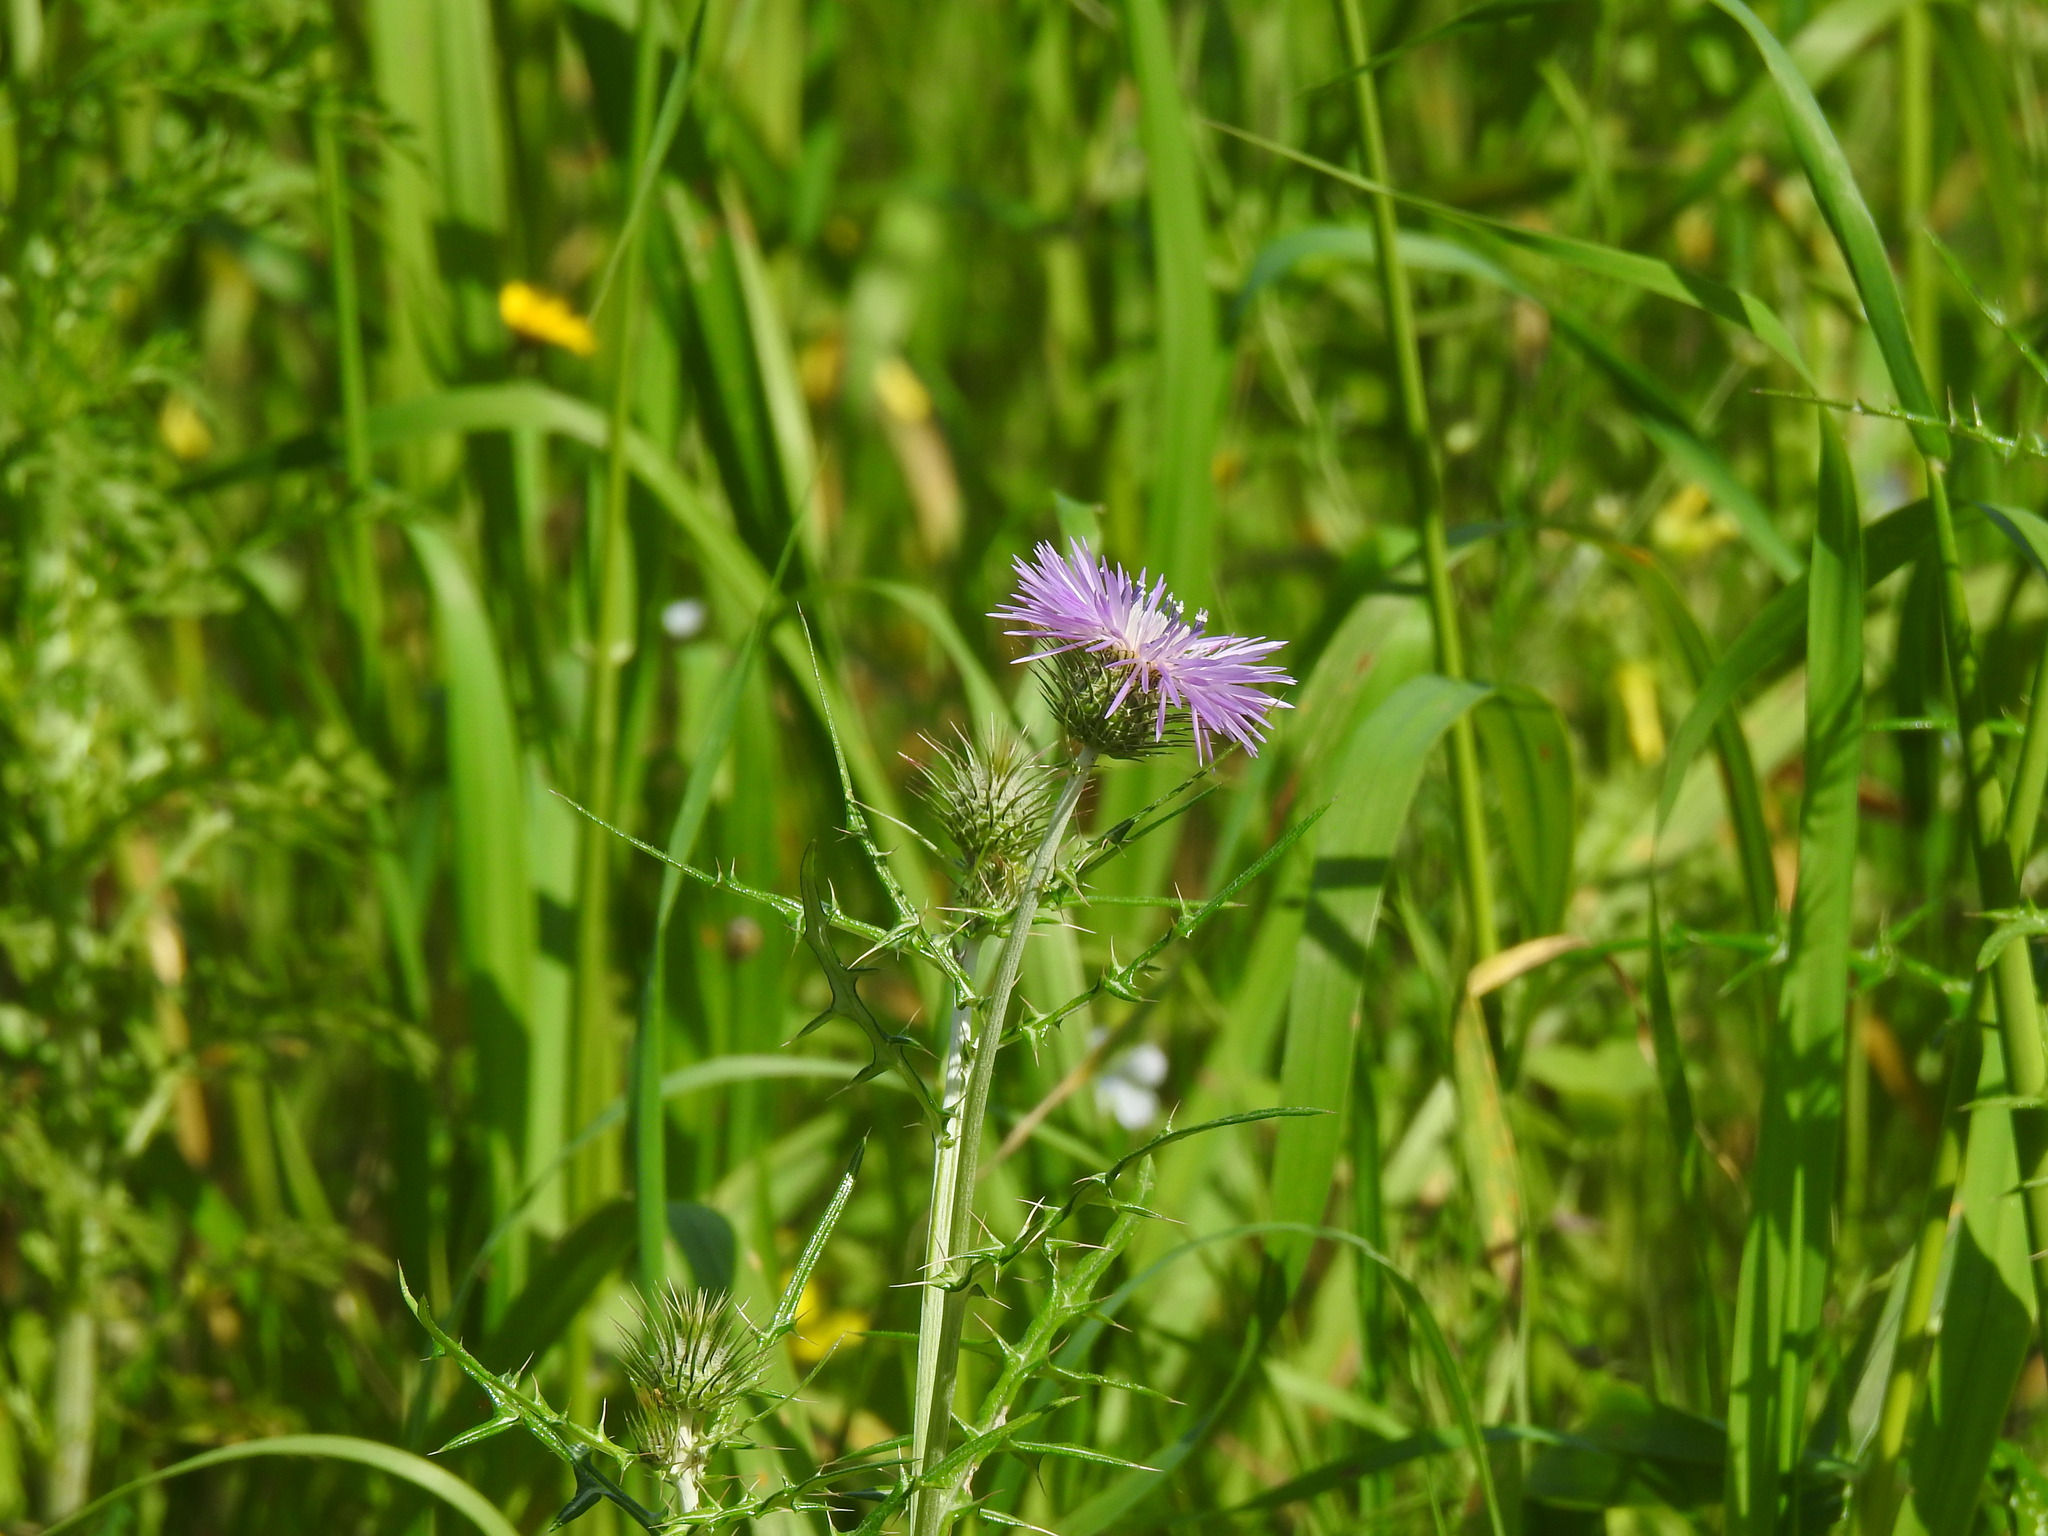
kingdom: Plantae
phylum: Tracheophyta
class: Magnoliopsida
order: Asterales
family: Asteraceae
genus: Galactites
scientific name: Galactites tomentosa
